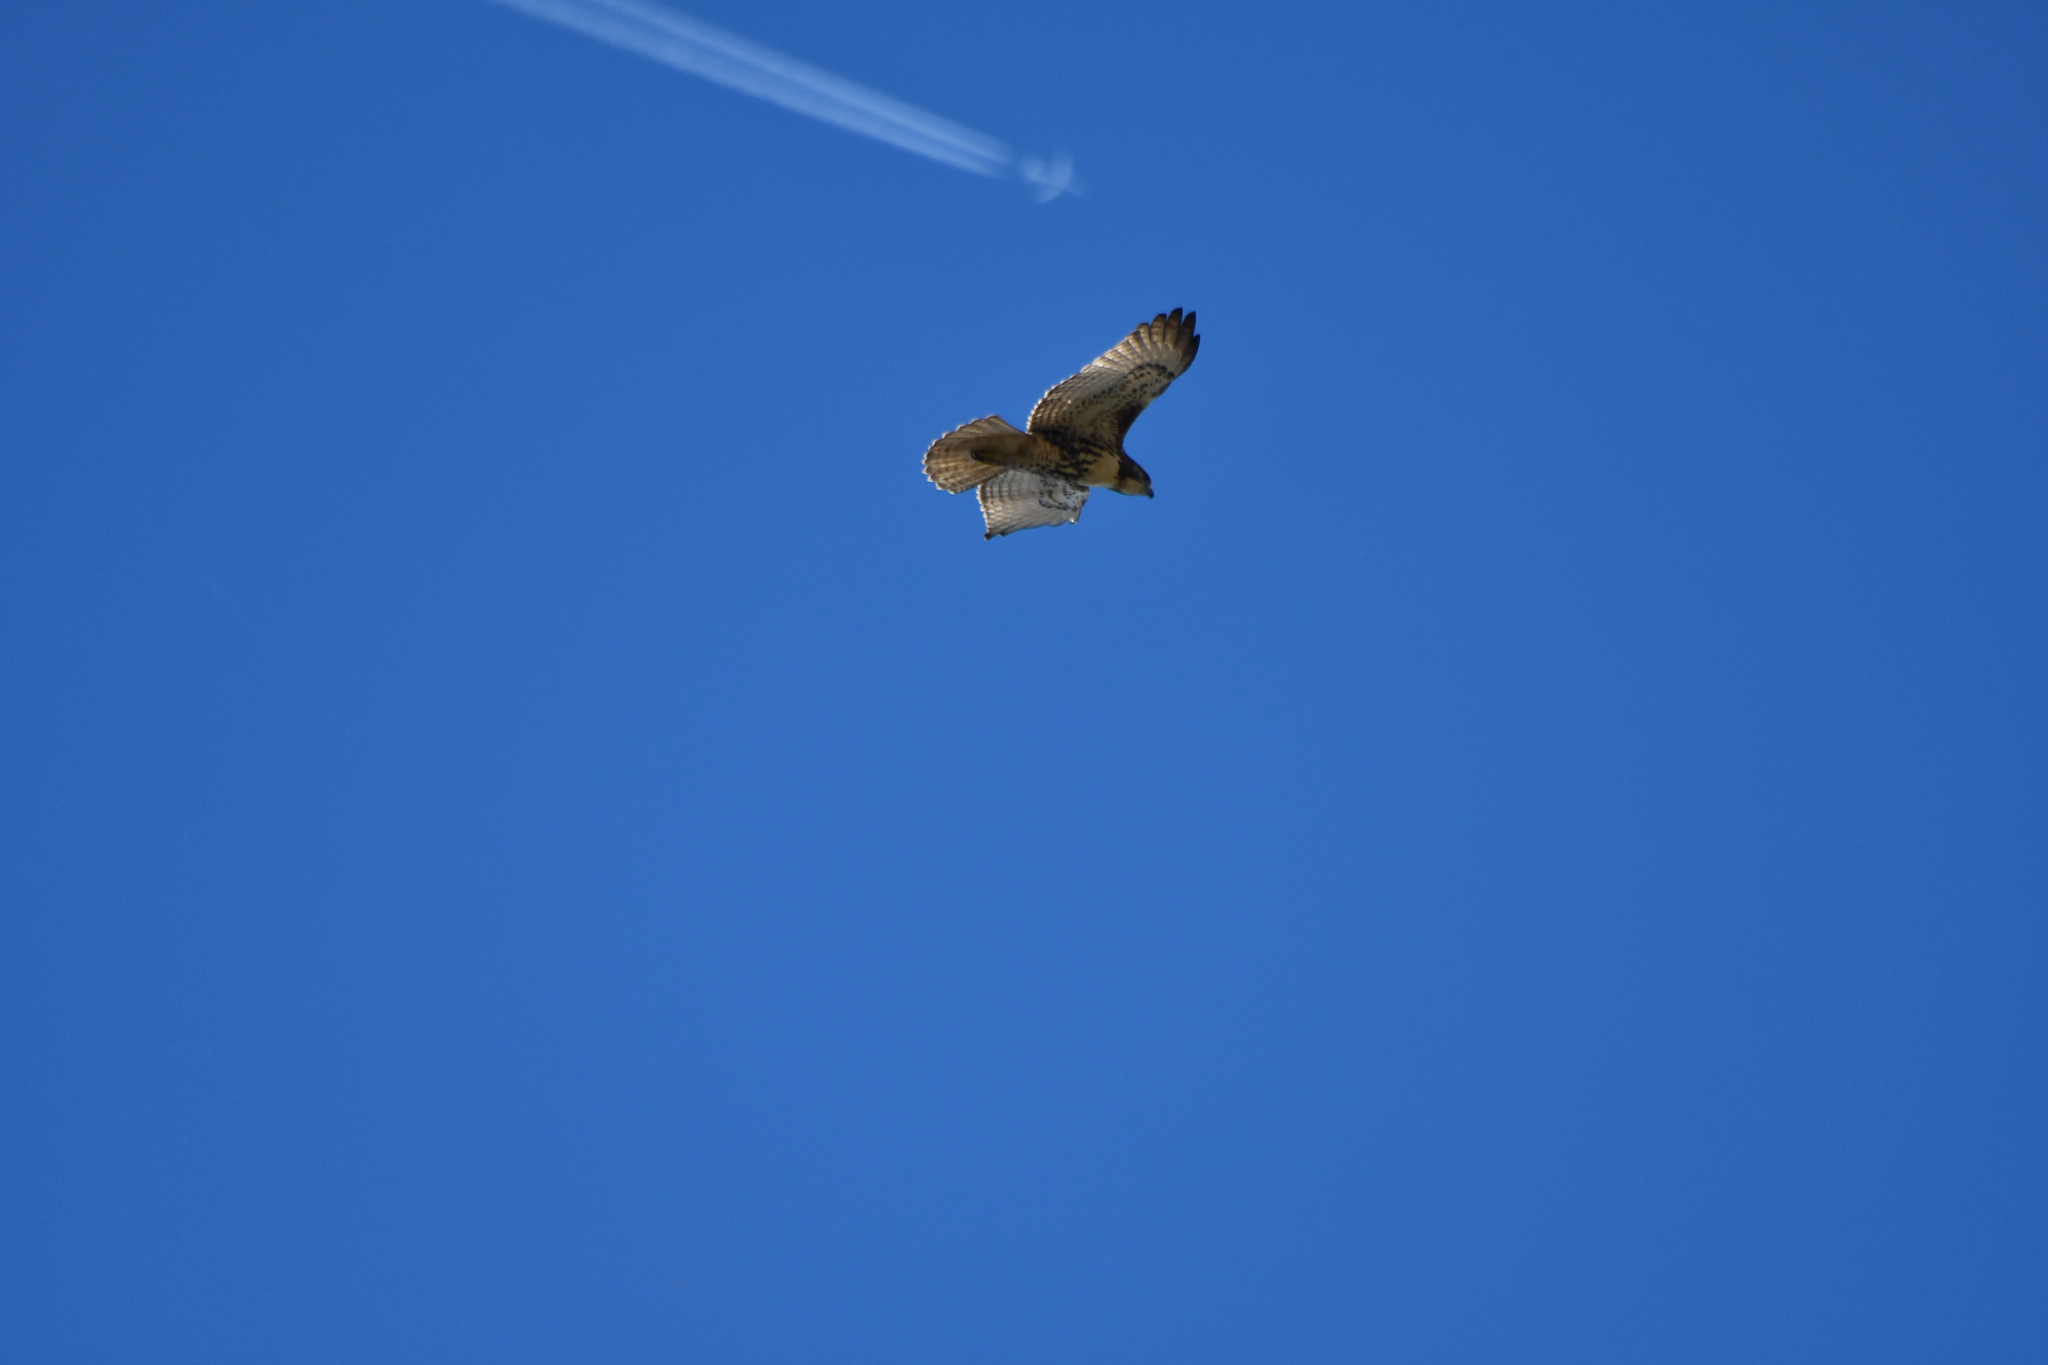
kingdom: Animalia
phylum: Chordata
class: Aves
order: Accipitriformes
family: Accipitridae
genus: Buteo
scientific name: Buteo jamaicensis
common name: Red-tailed hawk
